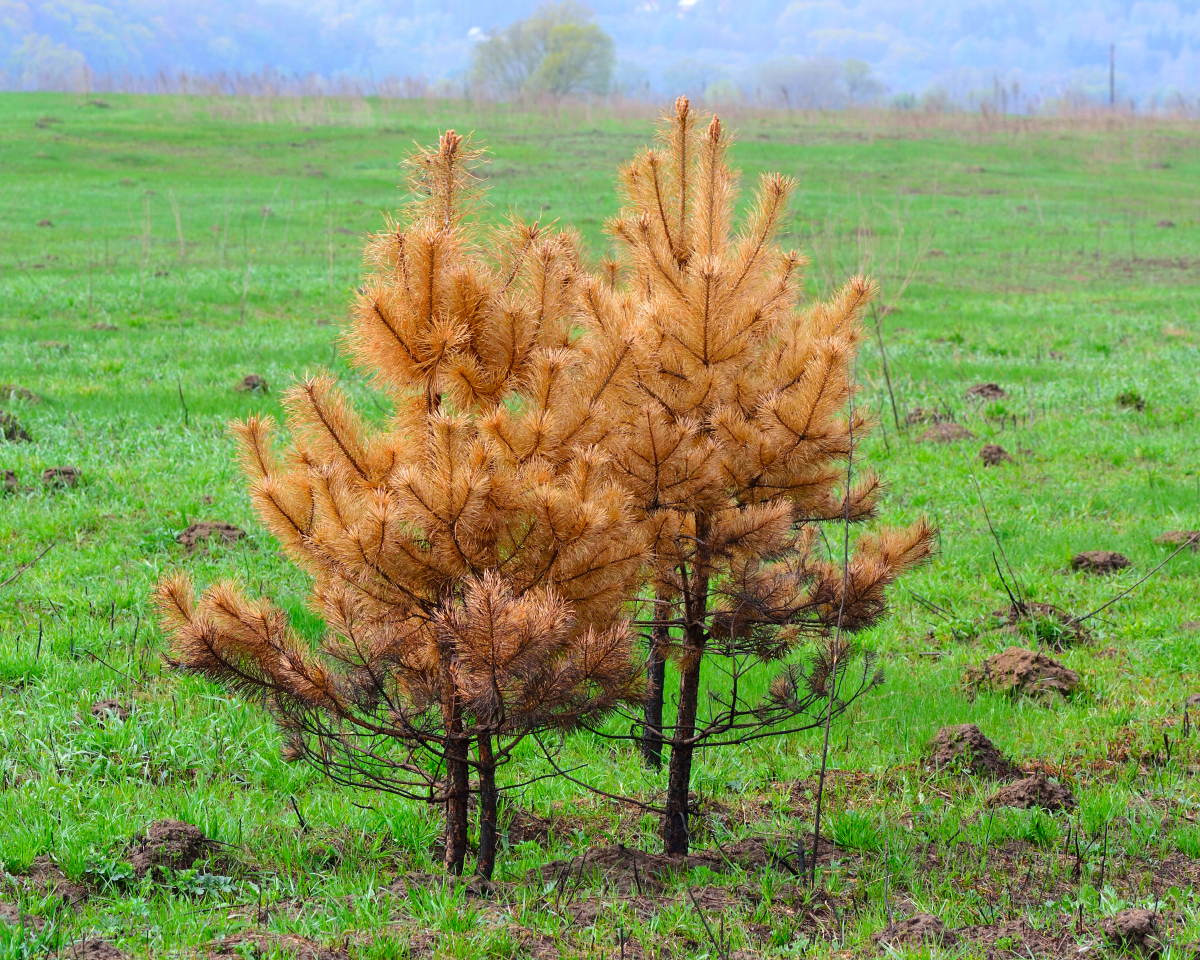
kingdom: Plantae
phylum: Tracheophyta
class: Pinopsida
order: Pinales
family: Pinaceae
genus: Pinus
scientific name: Pinus sylvestris
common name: Scots pine
